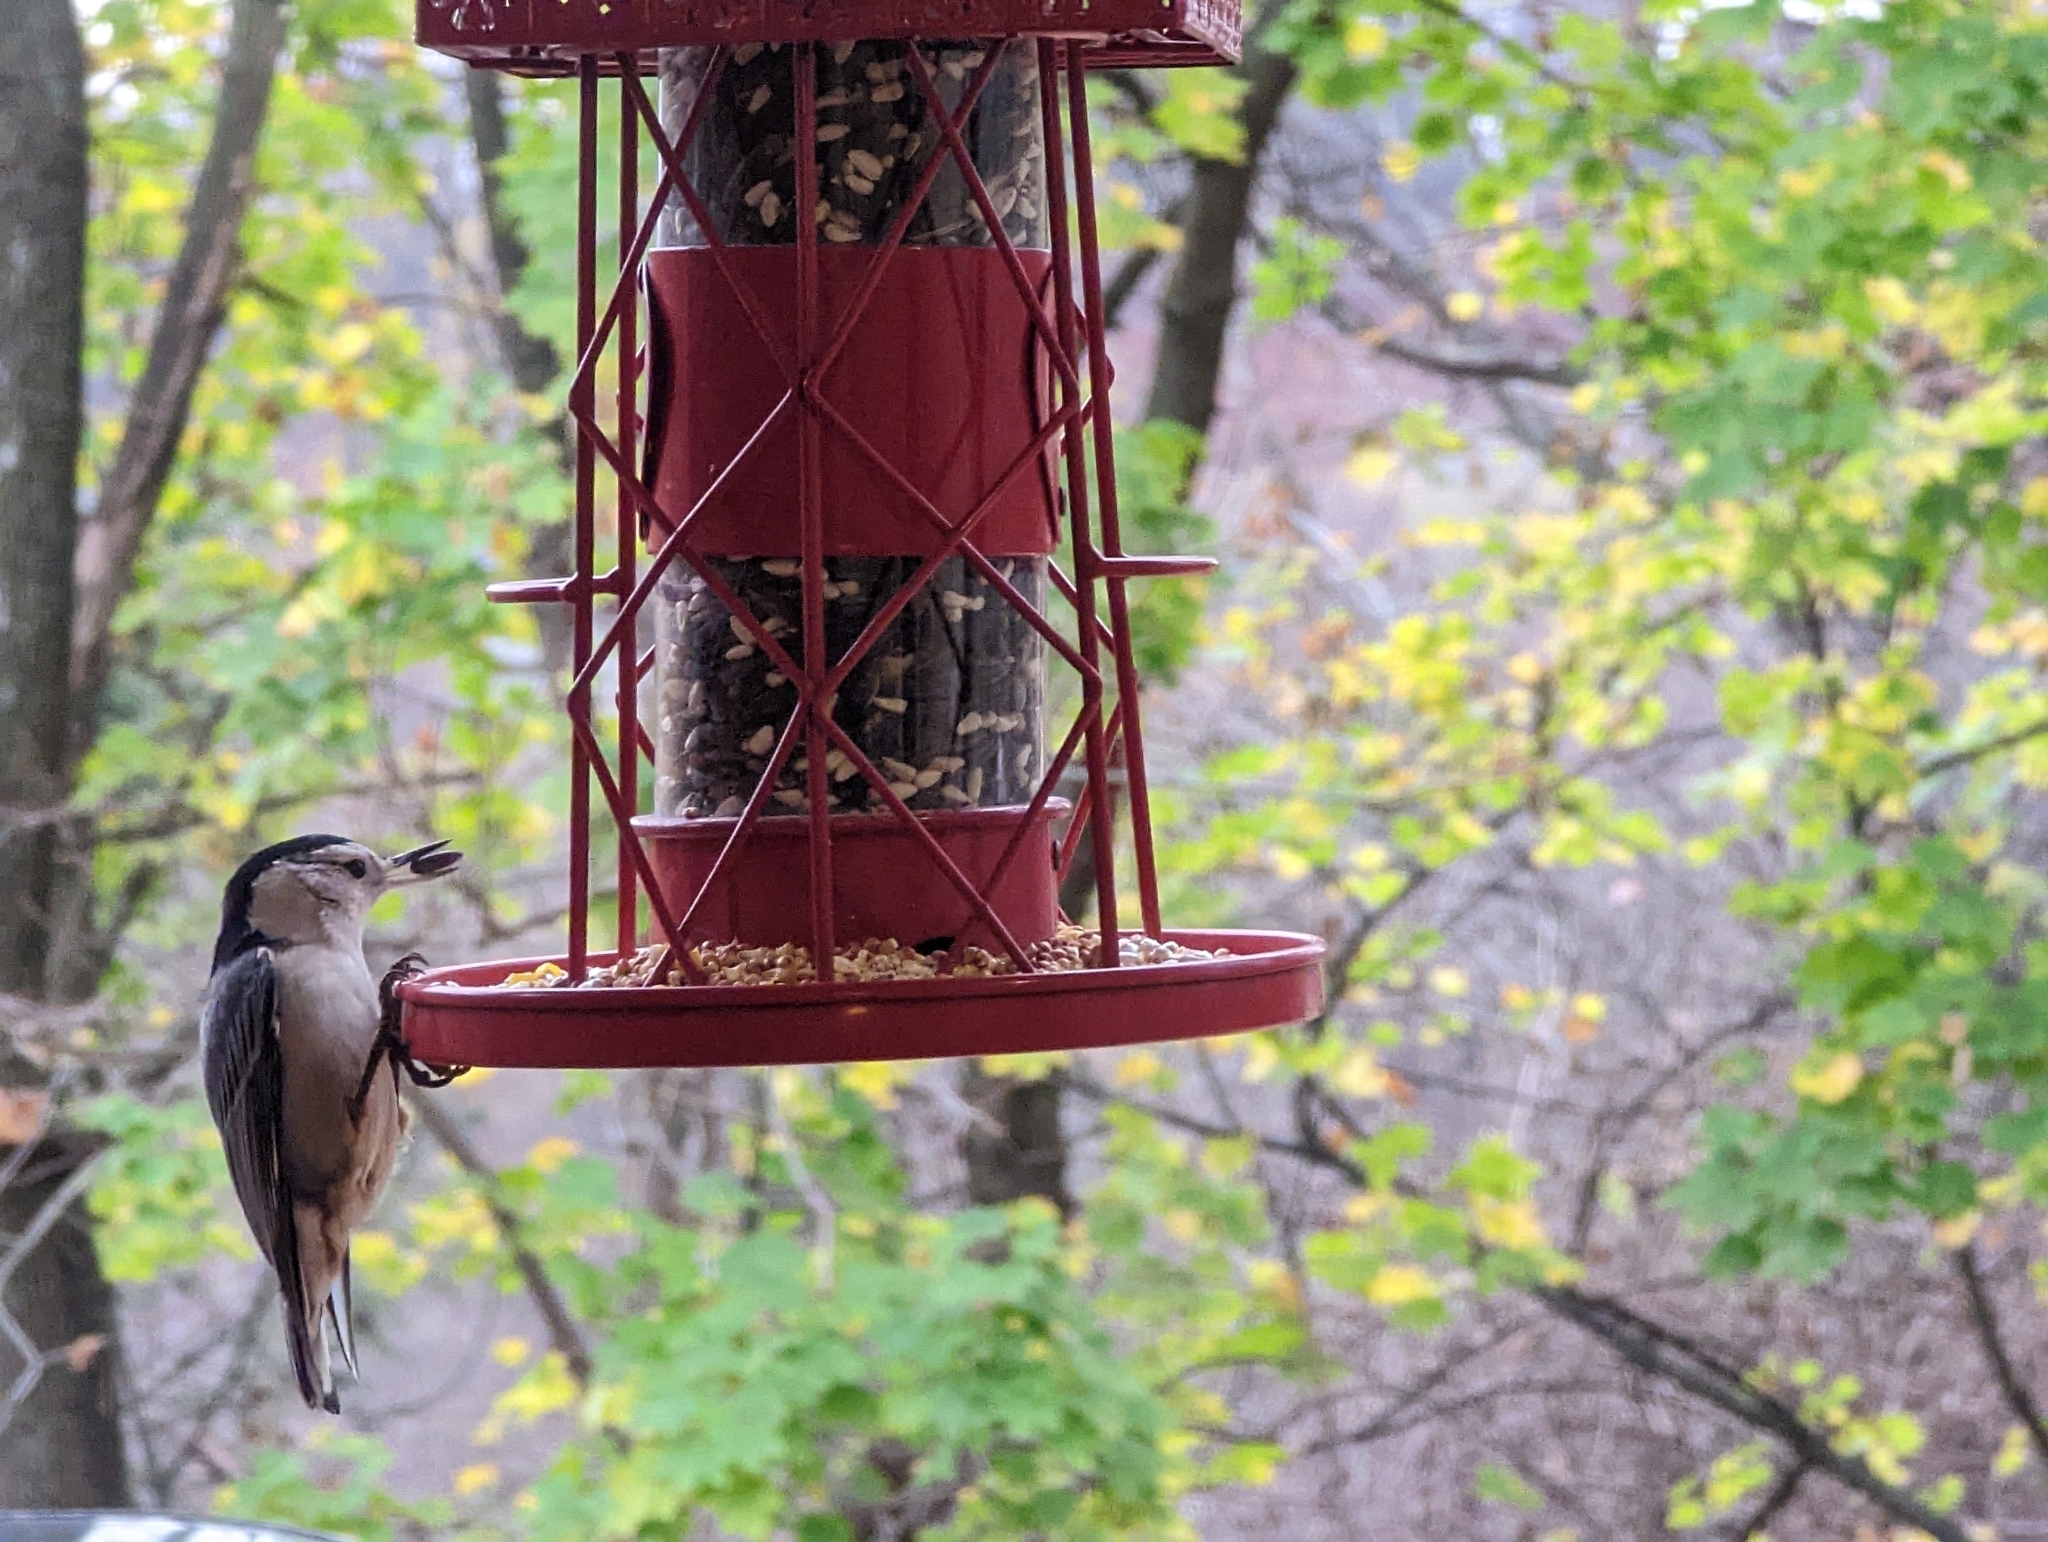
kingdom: Animalia
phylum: Chordata
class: Aves
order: Passeriformes
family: Sittidae
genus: Sitta
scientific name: Sitta carolinensis
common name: White-breasted nuthatch
